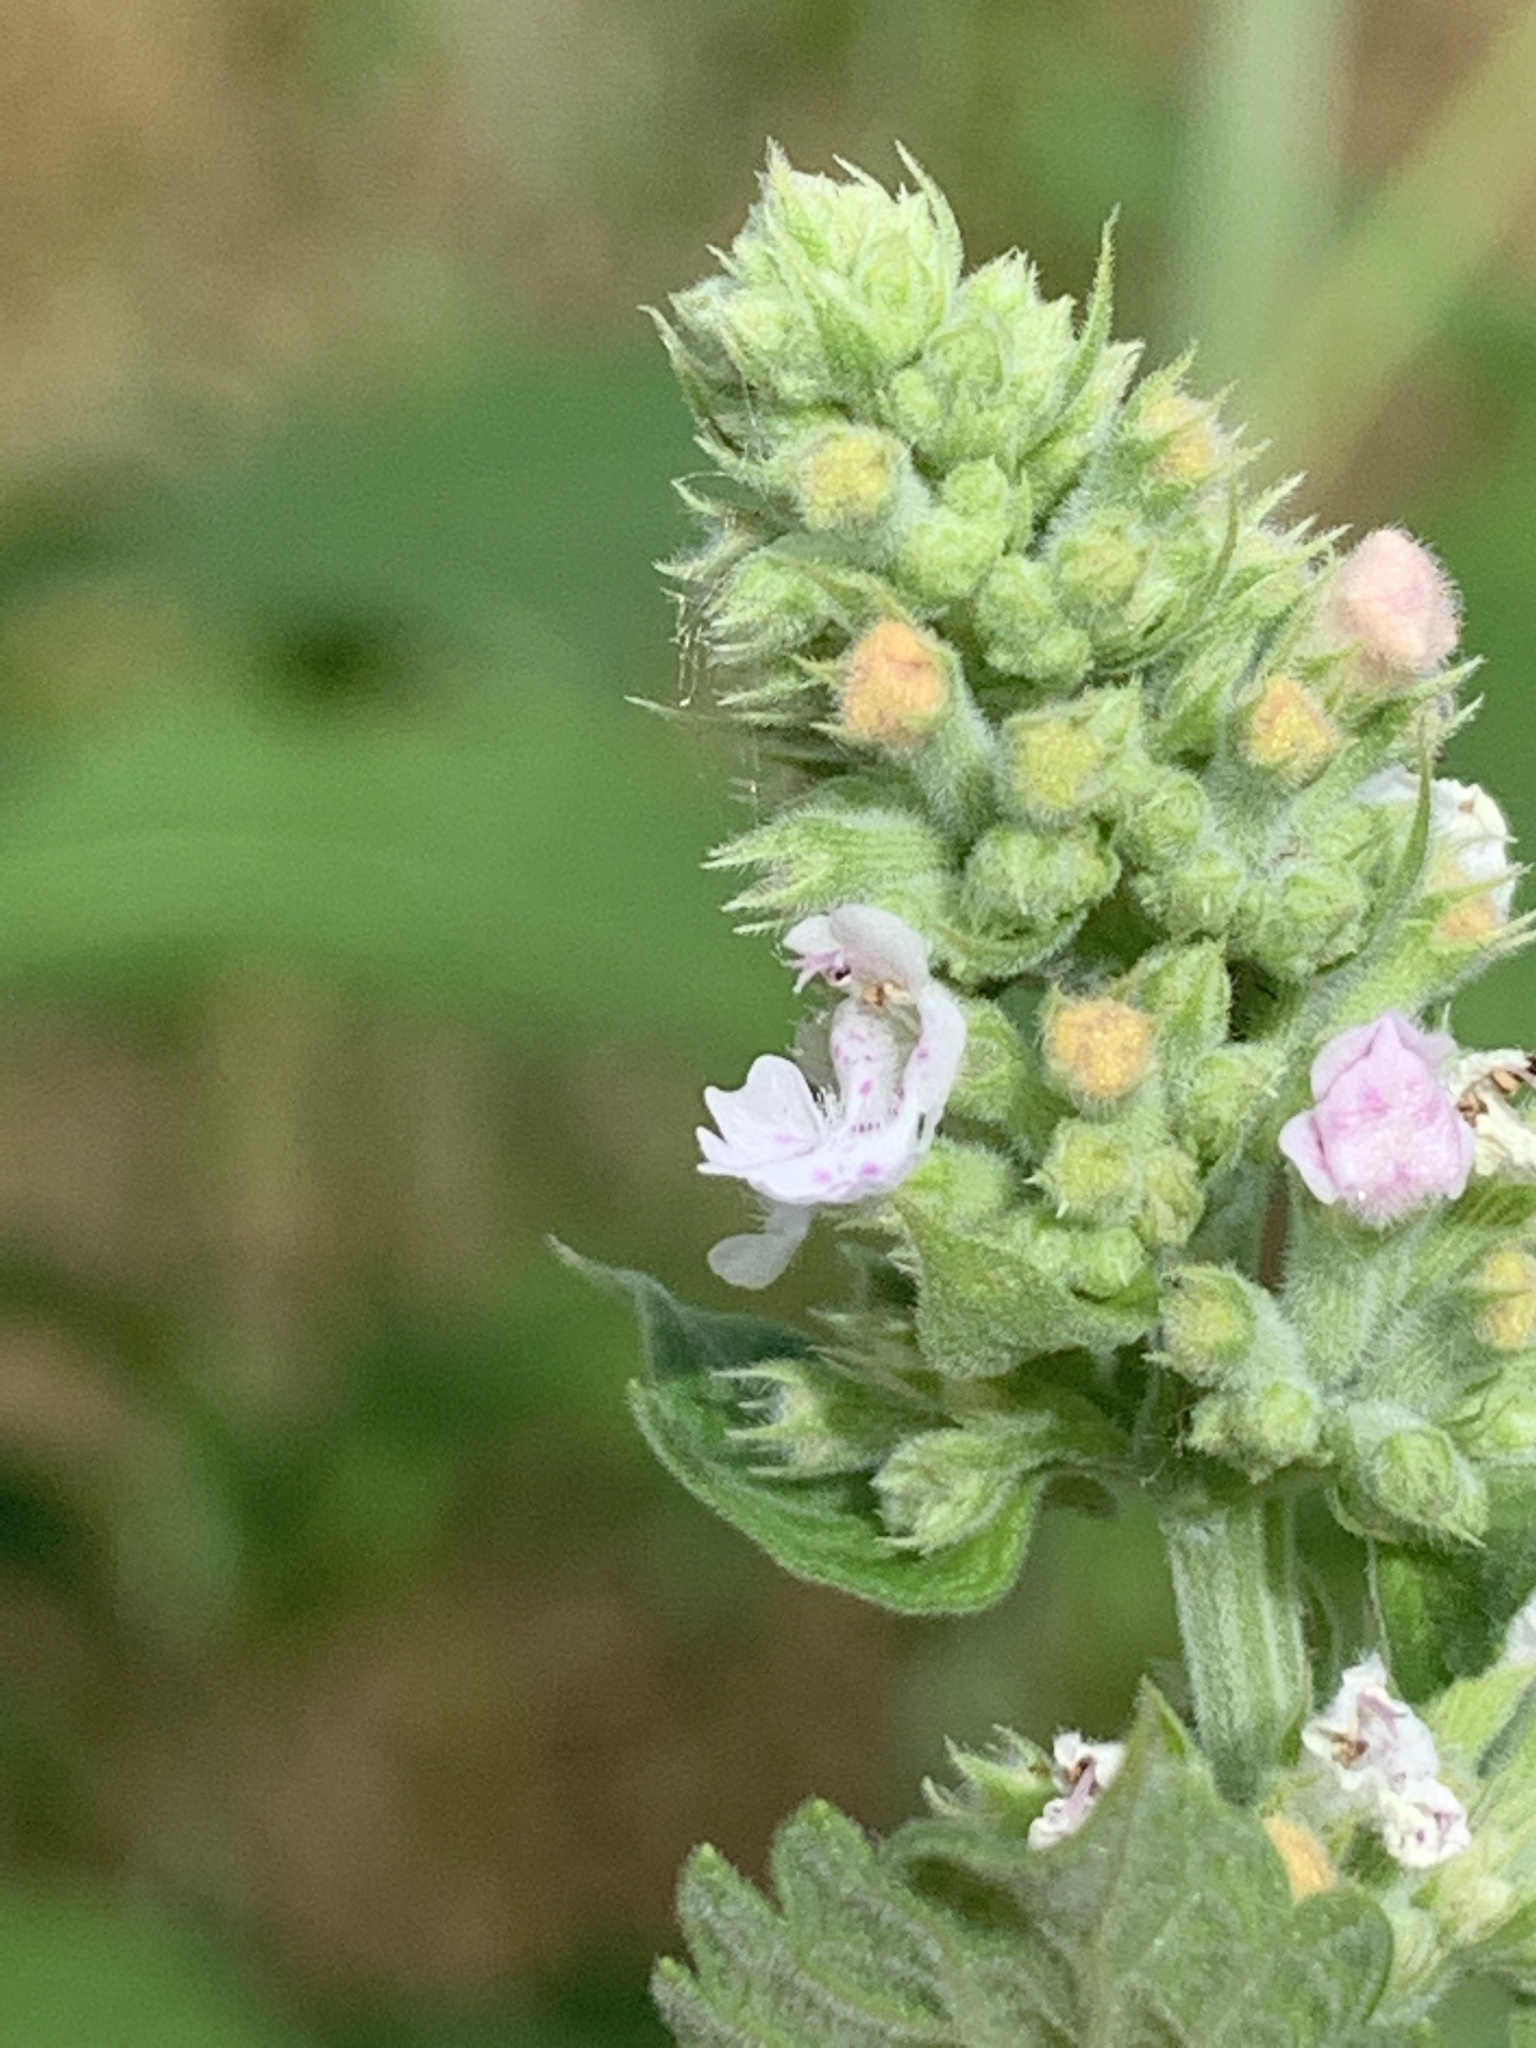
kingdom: Plantae
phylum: Tracheophyta
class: Magnoliopsida
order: Lamiales
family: Lamiaceae
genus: Nepeta
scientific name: Nepeta cataria
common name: Catnip
